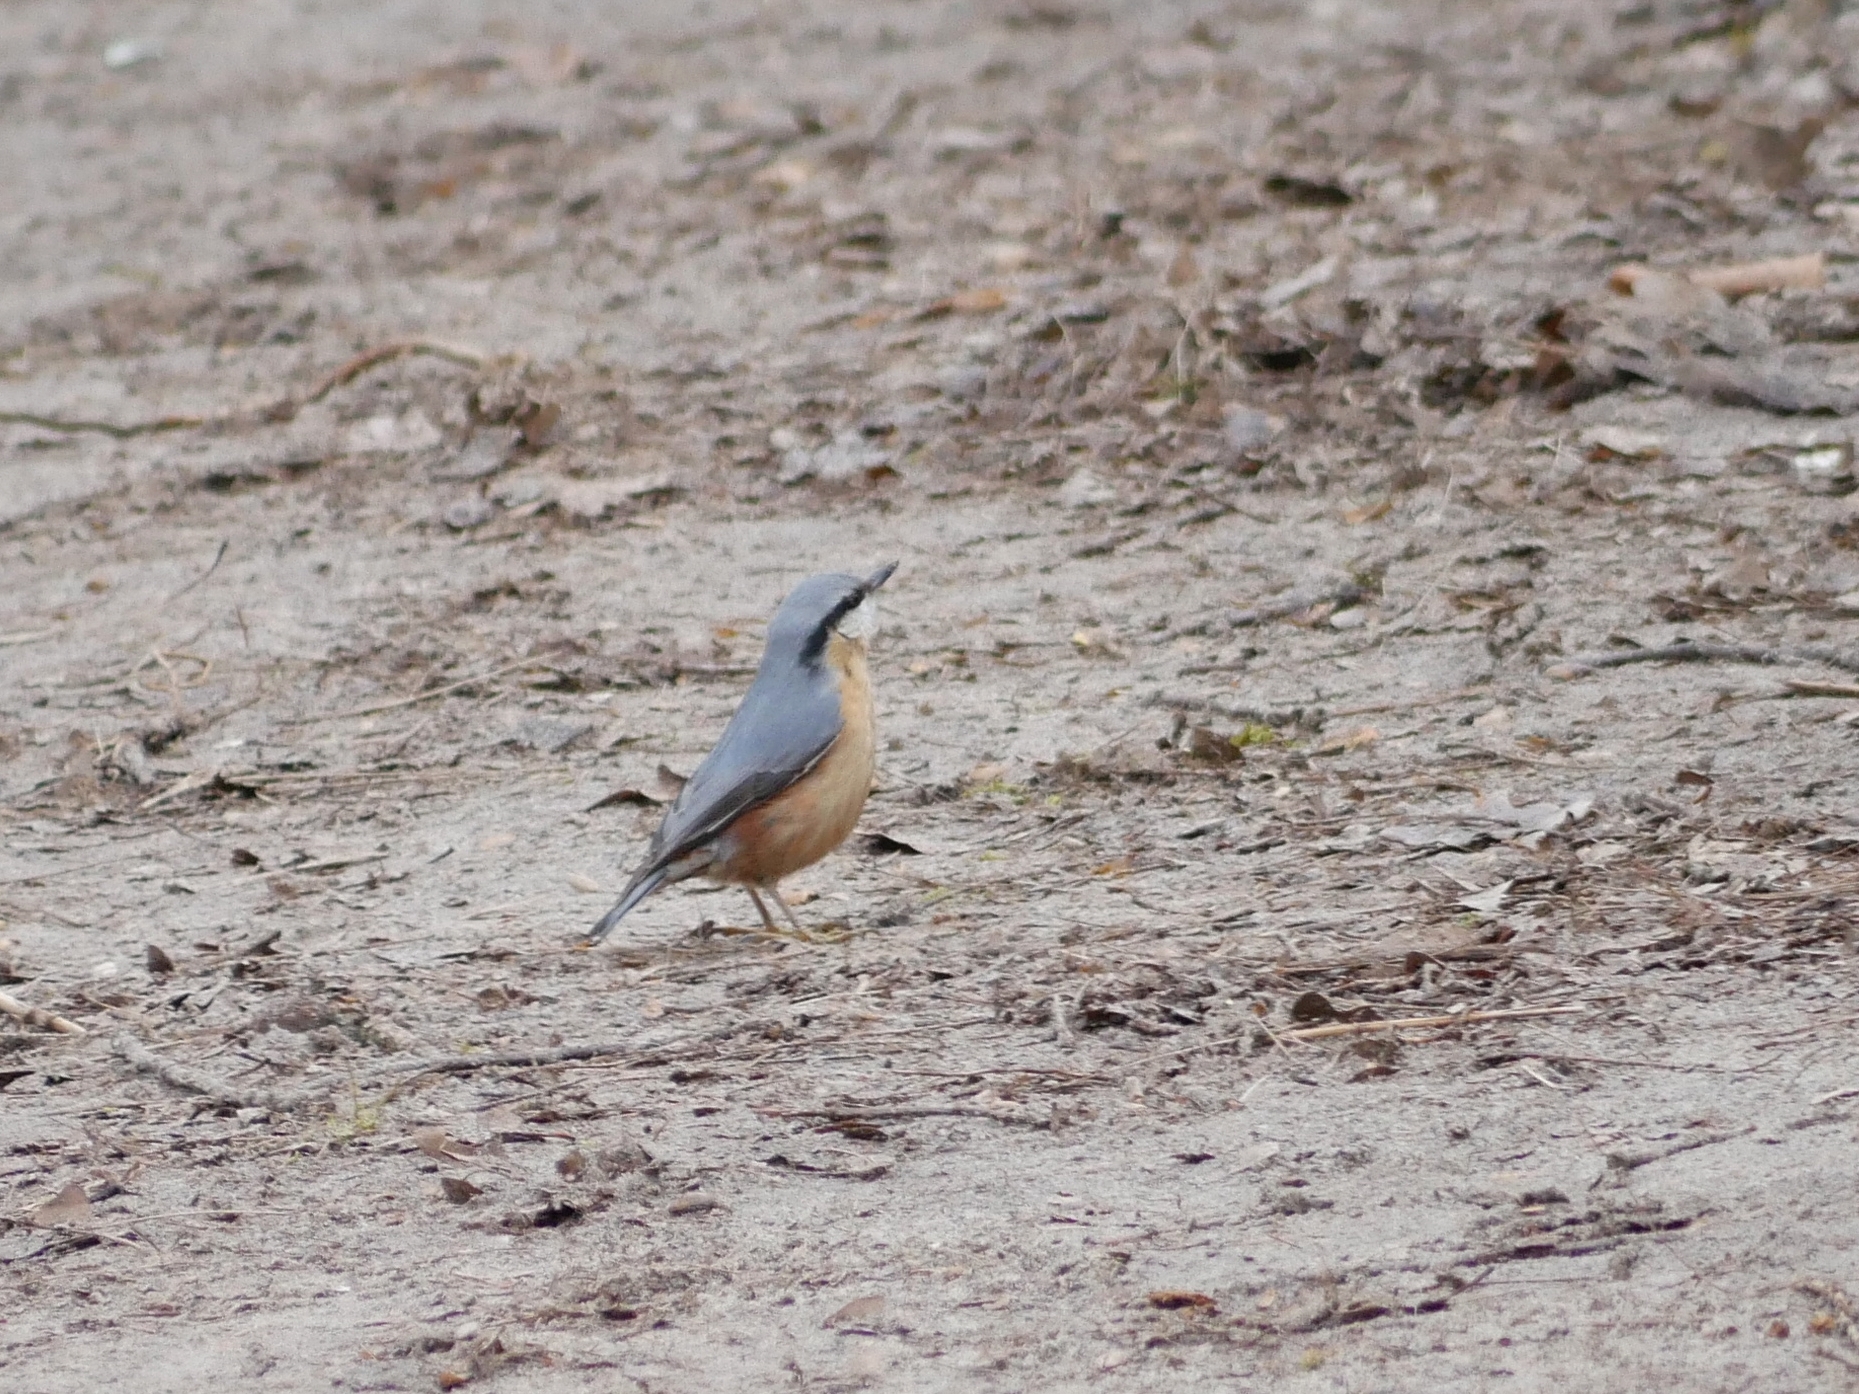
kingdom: Animalia
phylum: Chordata
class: Aves
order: Passeriformes
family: Sittidae
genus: Sitta
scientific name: Sitta europaea
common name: Eurasian nuthatch
